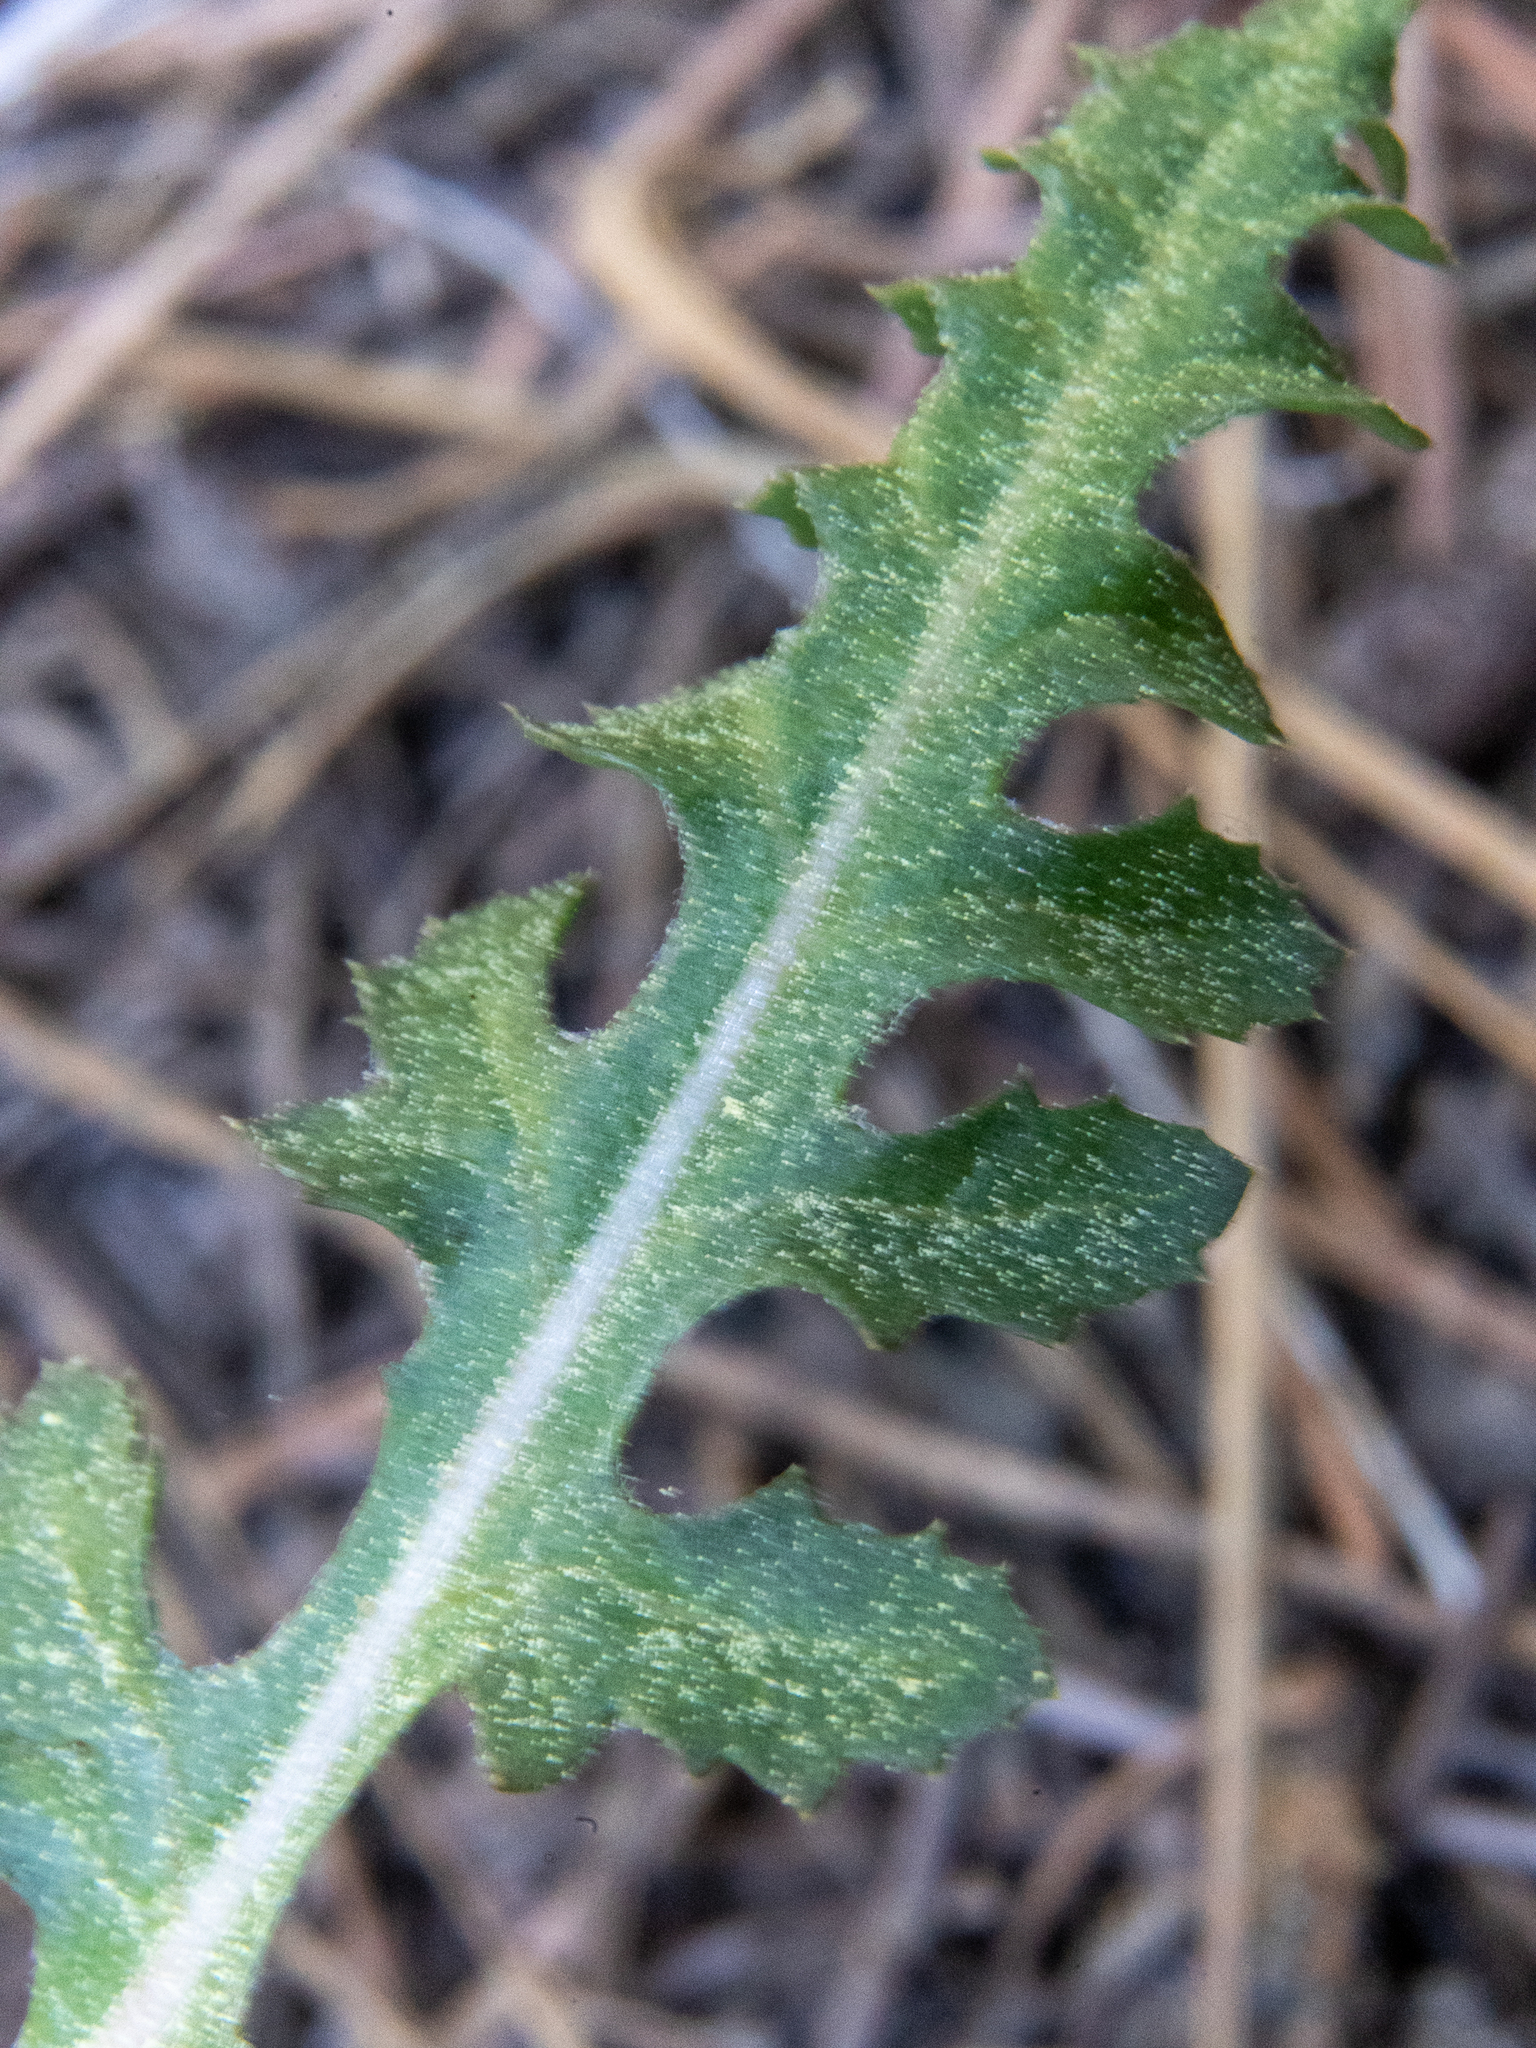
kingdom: Plantae
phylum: Tracheophyta
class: Magnoliopsida
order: Lamiales
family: Orobanchaceae
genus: Pedicularis
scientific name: Pedicularis semibarbata
